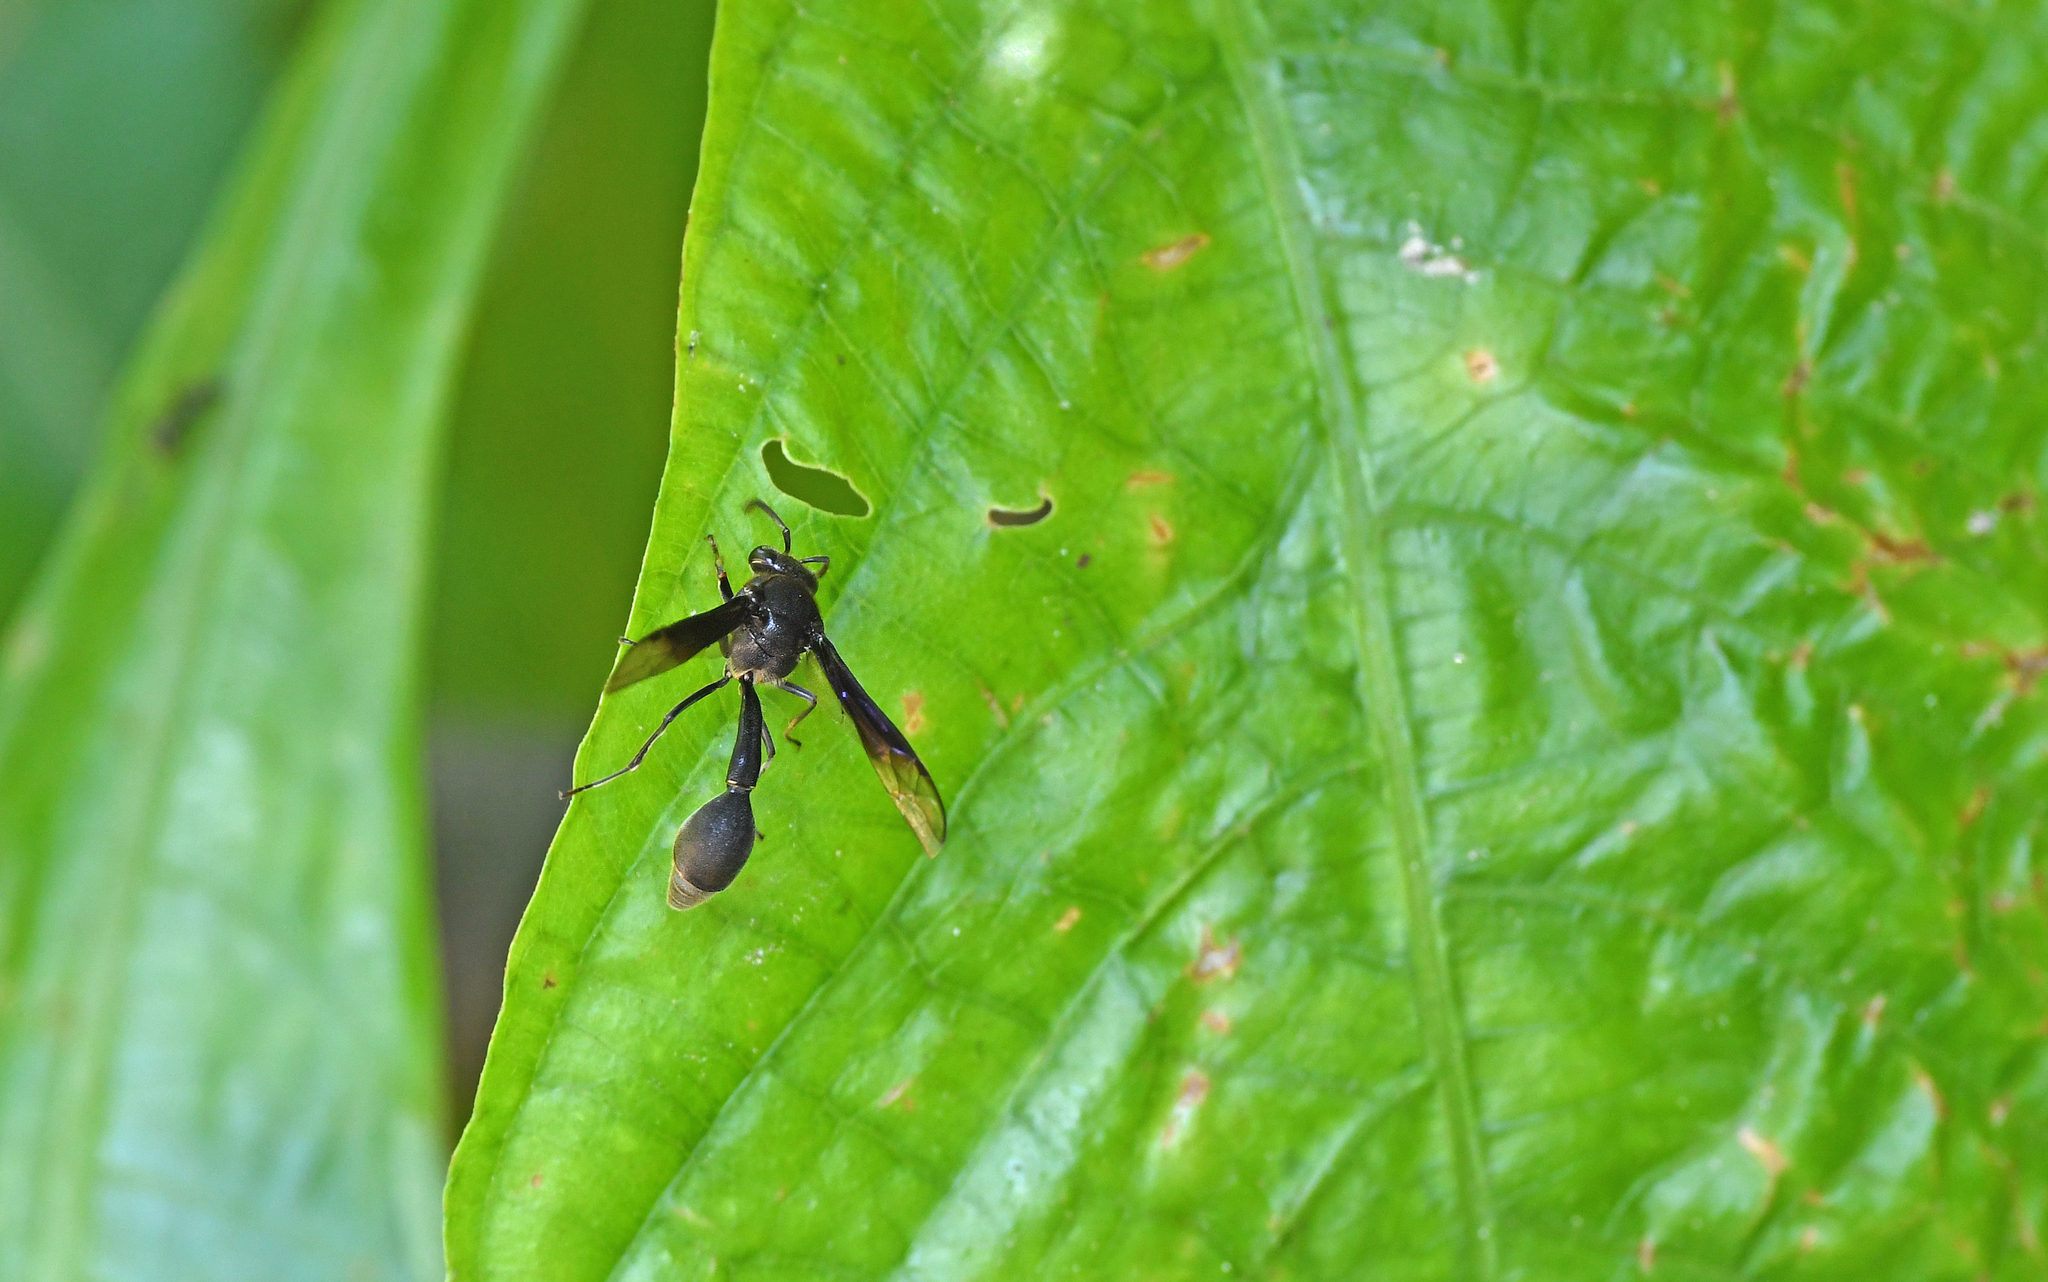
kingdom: Animalia
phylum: Arthropoda
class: Insecta
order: Hymenoptera
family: Vespidae
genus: Eumenes
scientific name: Eumenes filiformis
